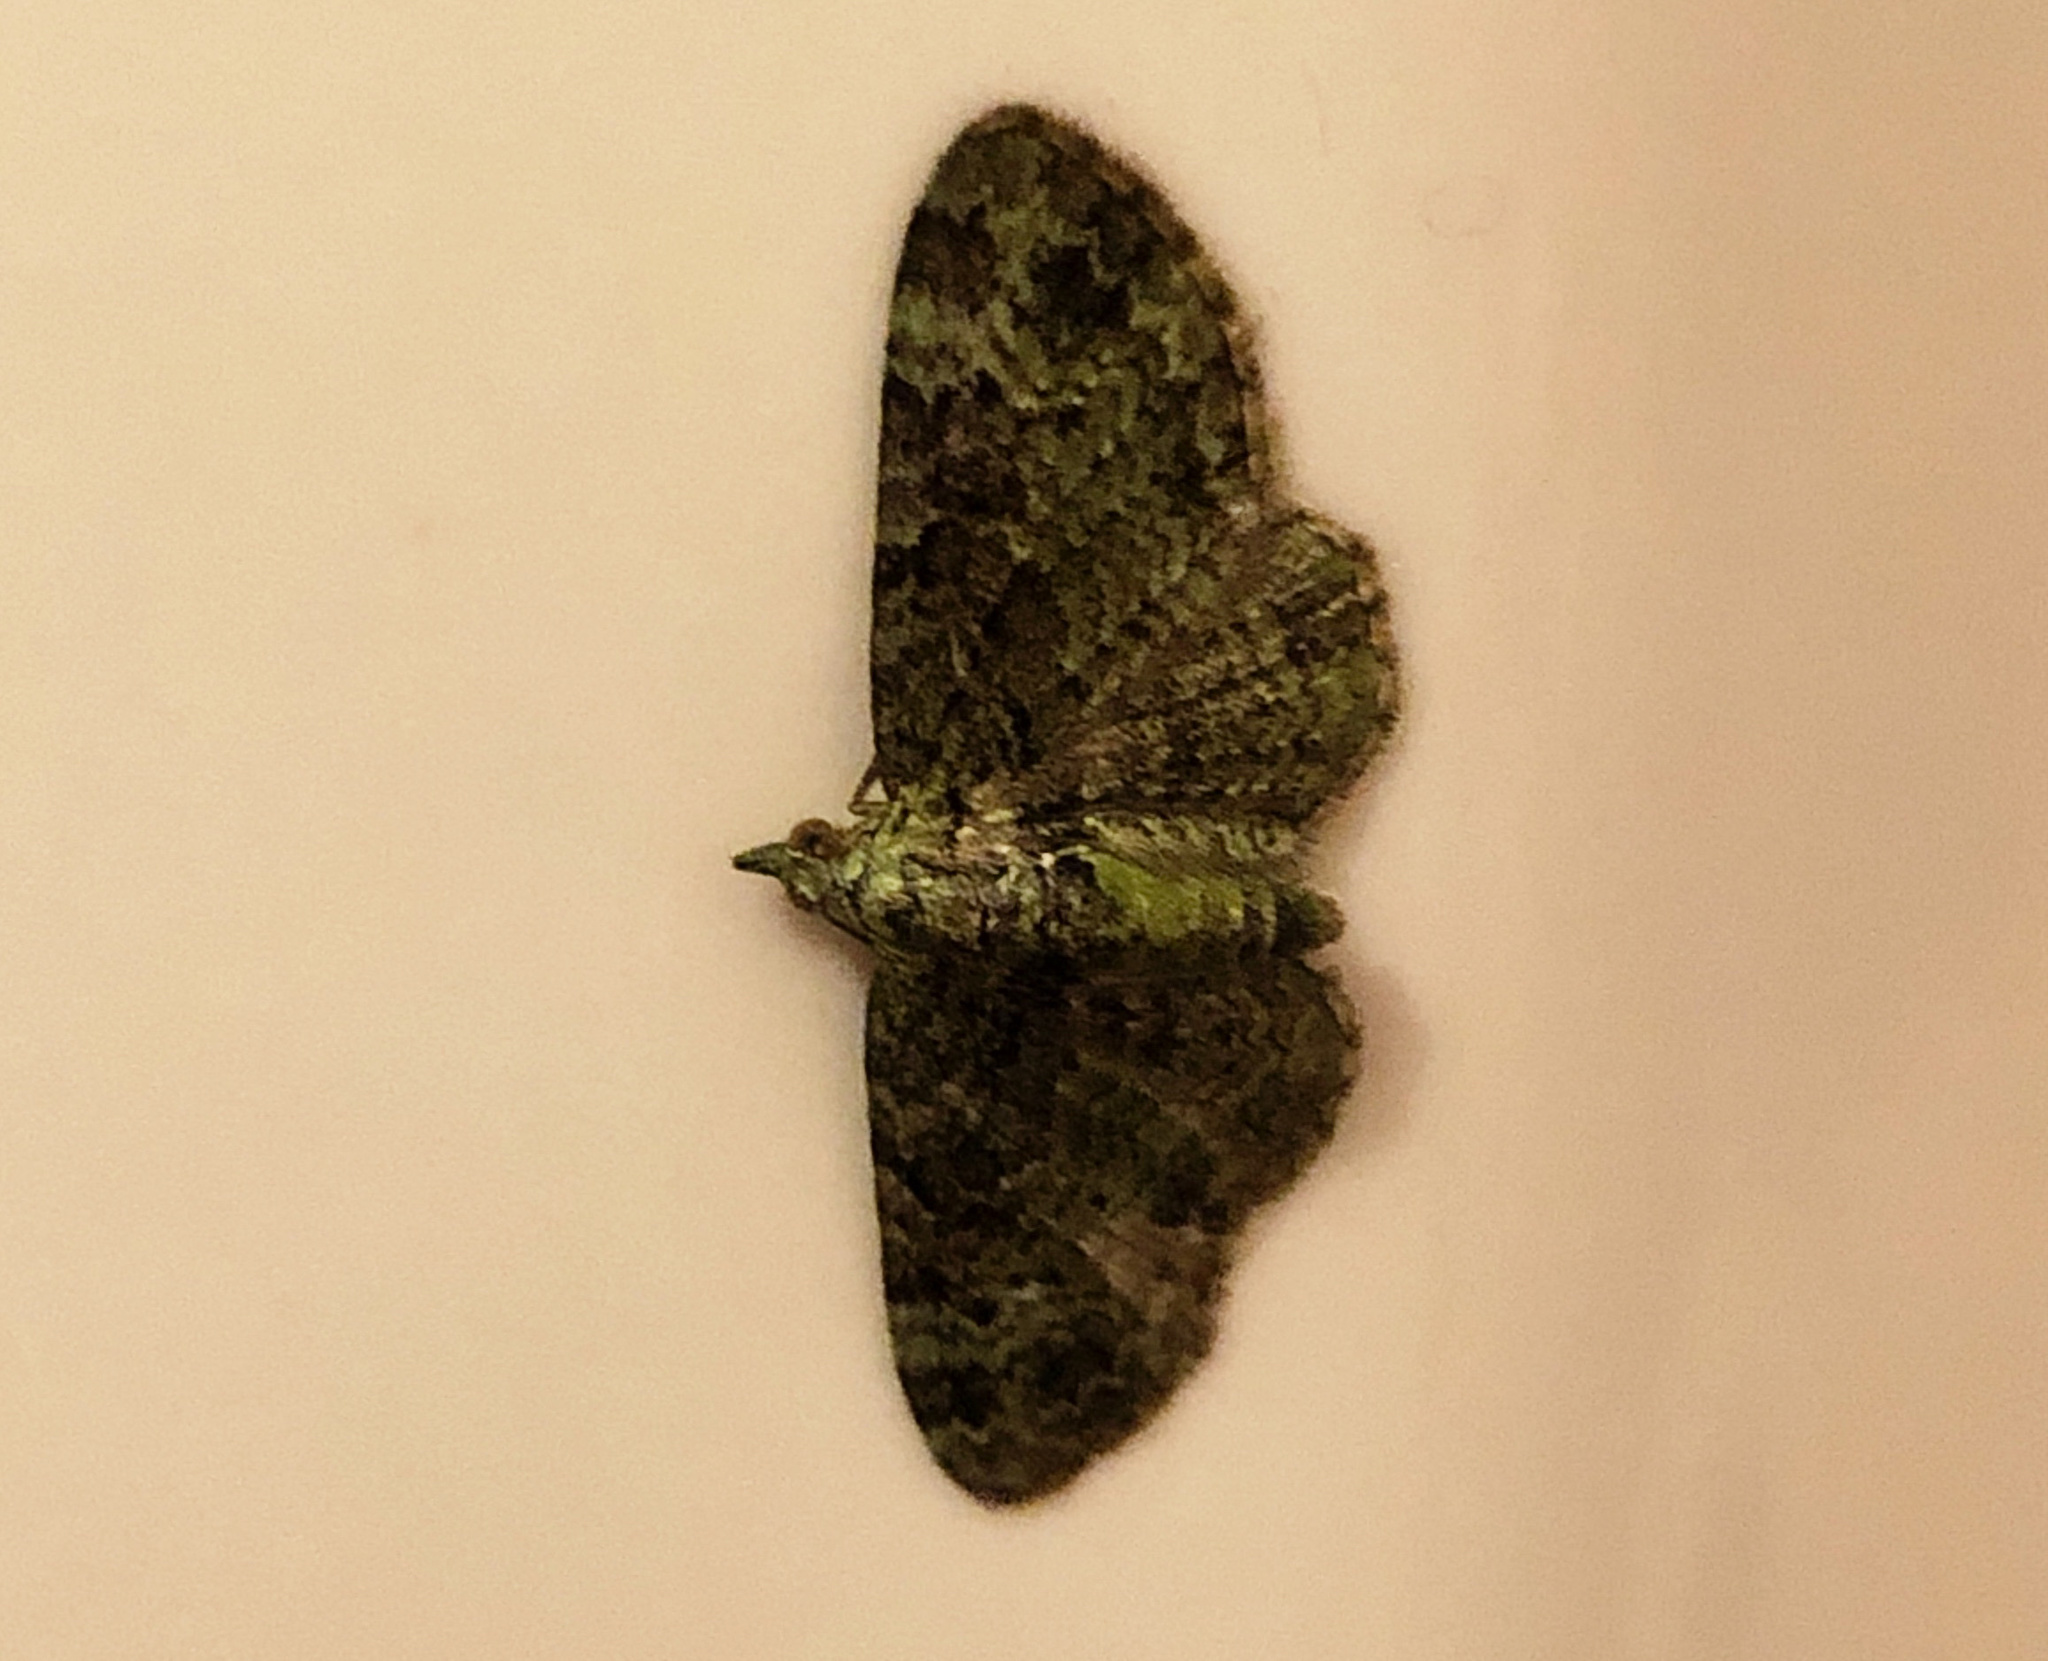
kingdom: Animalia
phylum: Arthropoda
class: Insecta
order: Lepidoptera
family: Geometridae
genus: Pasiphila
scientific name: Pasiphila rectangulata
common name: Green pug
